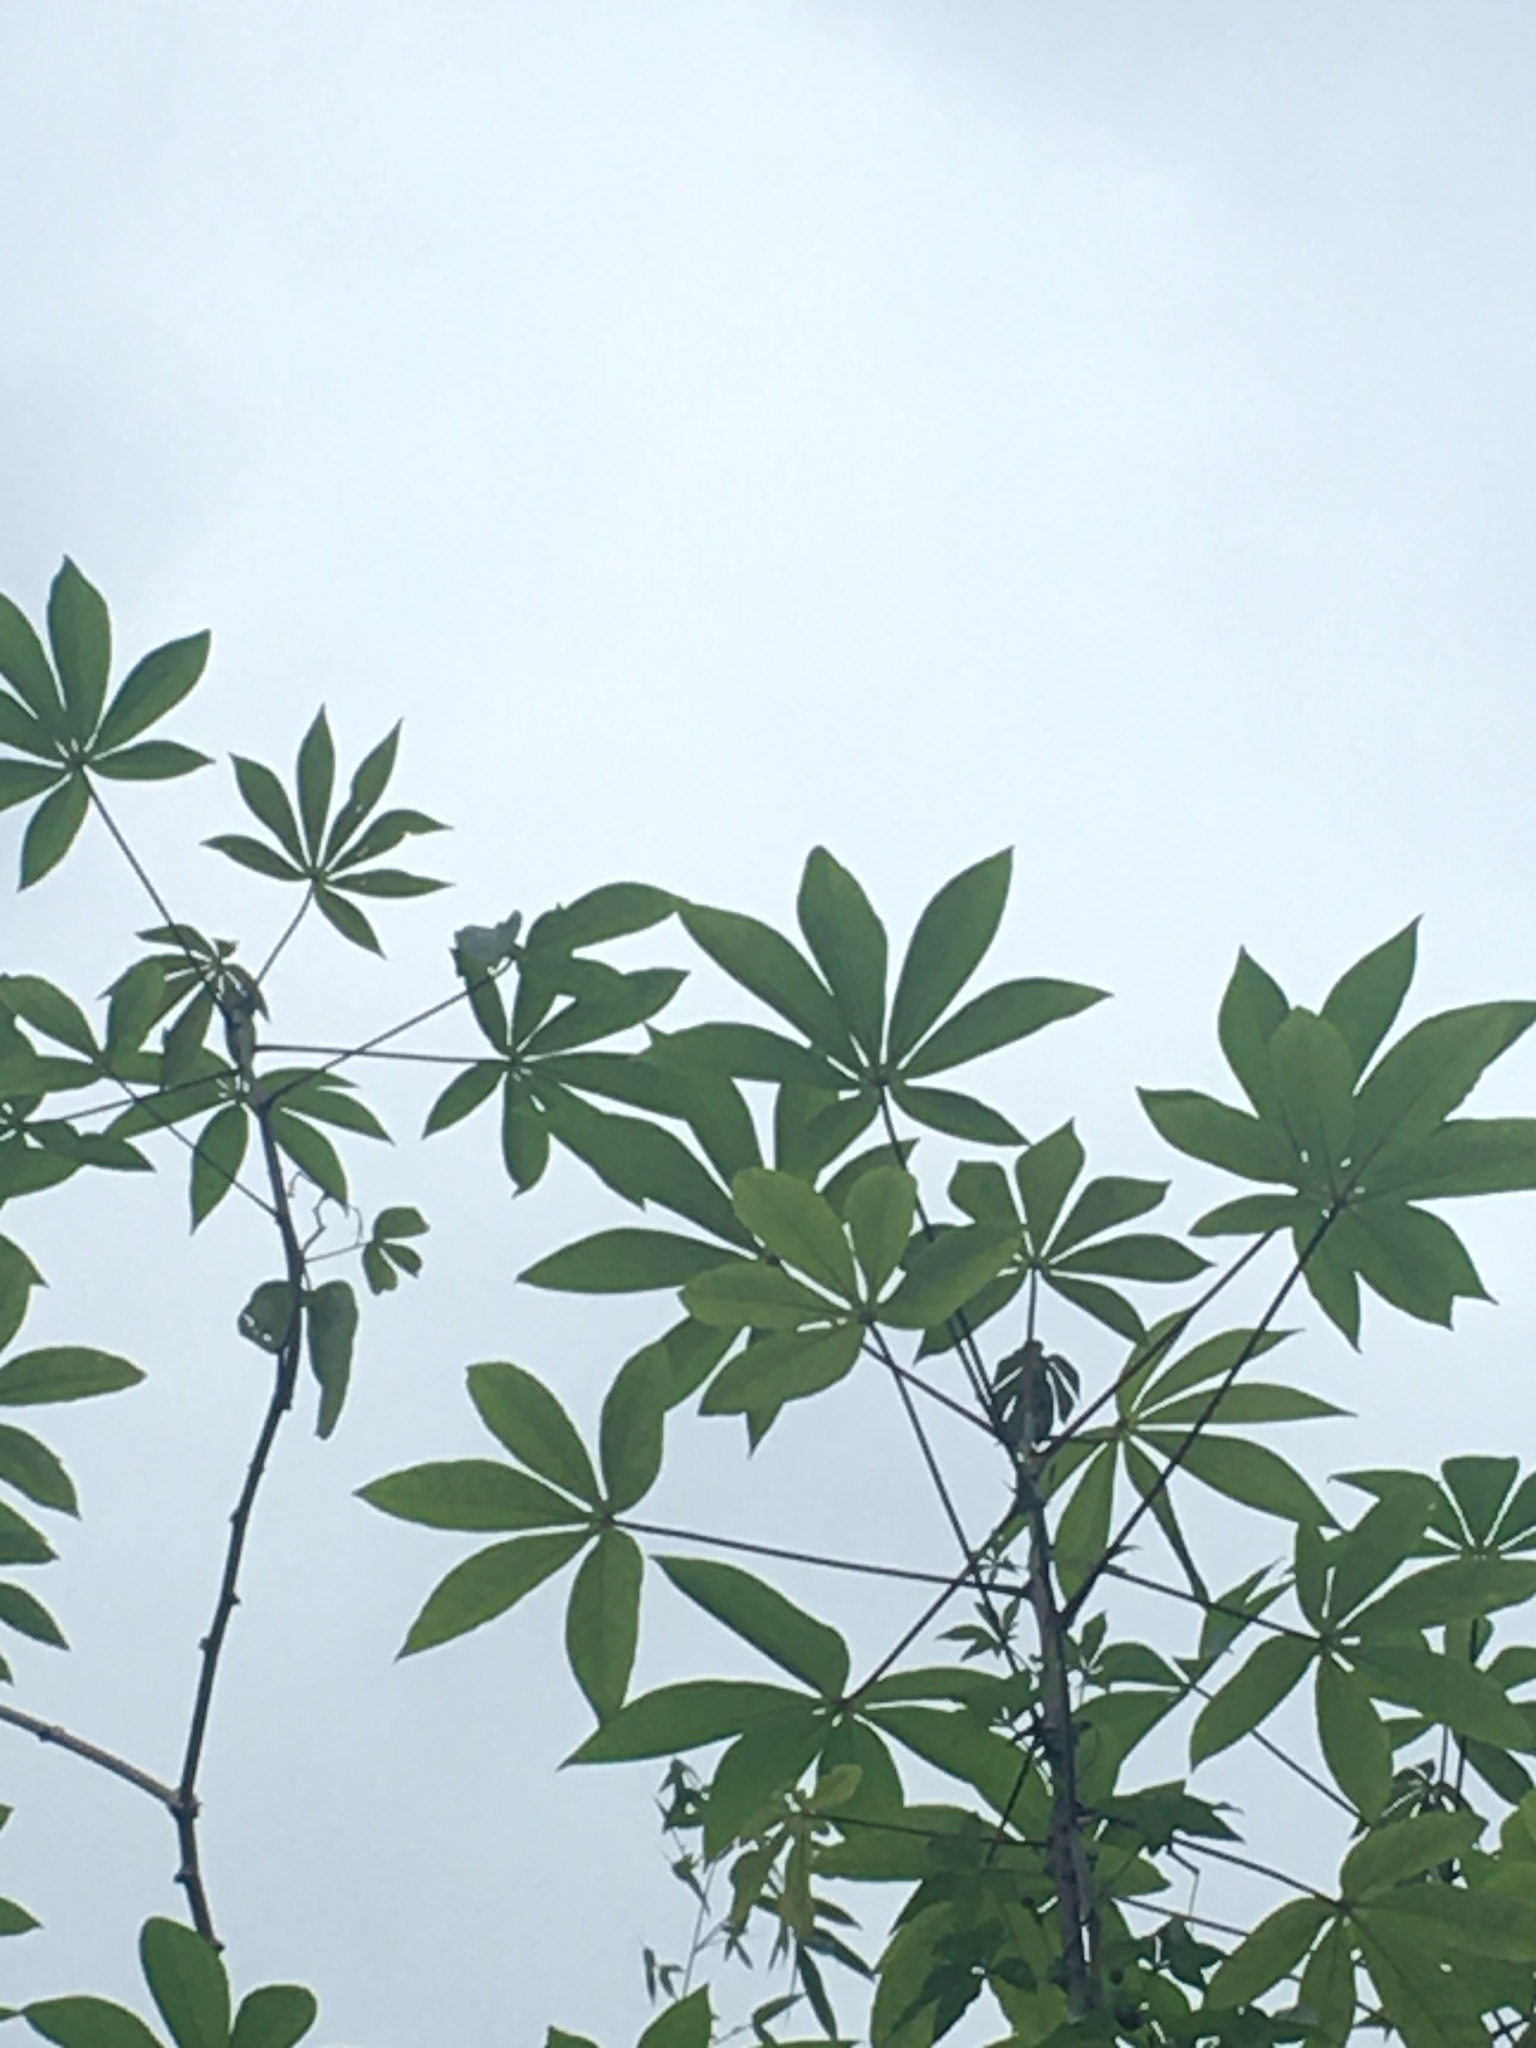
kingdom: Plantae
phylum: Tracheophyta
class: Magnoliopsida
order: Malpighiales
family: Euphorbiaceae
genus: Manihot
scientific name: Manihot esculenta
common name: Cassava
